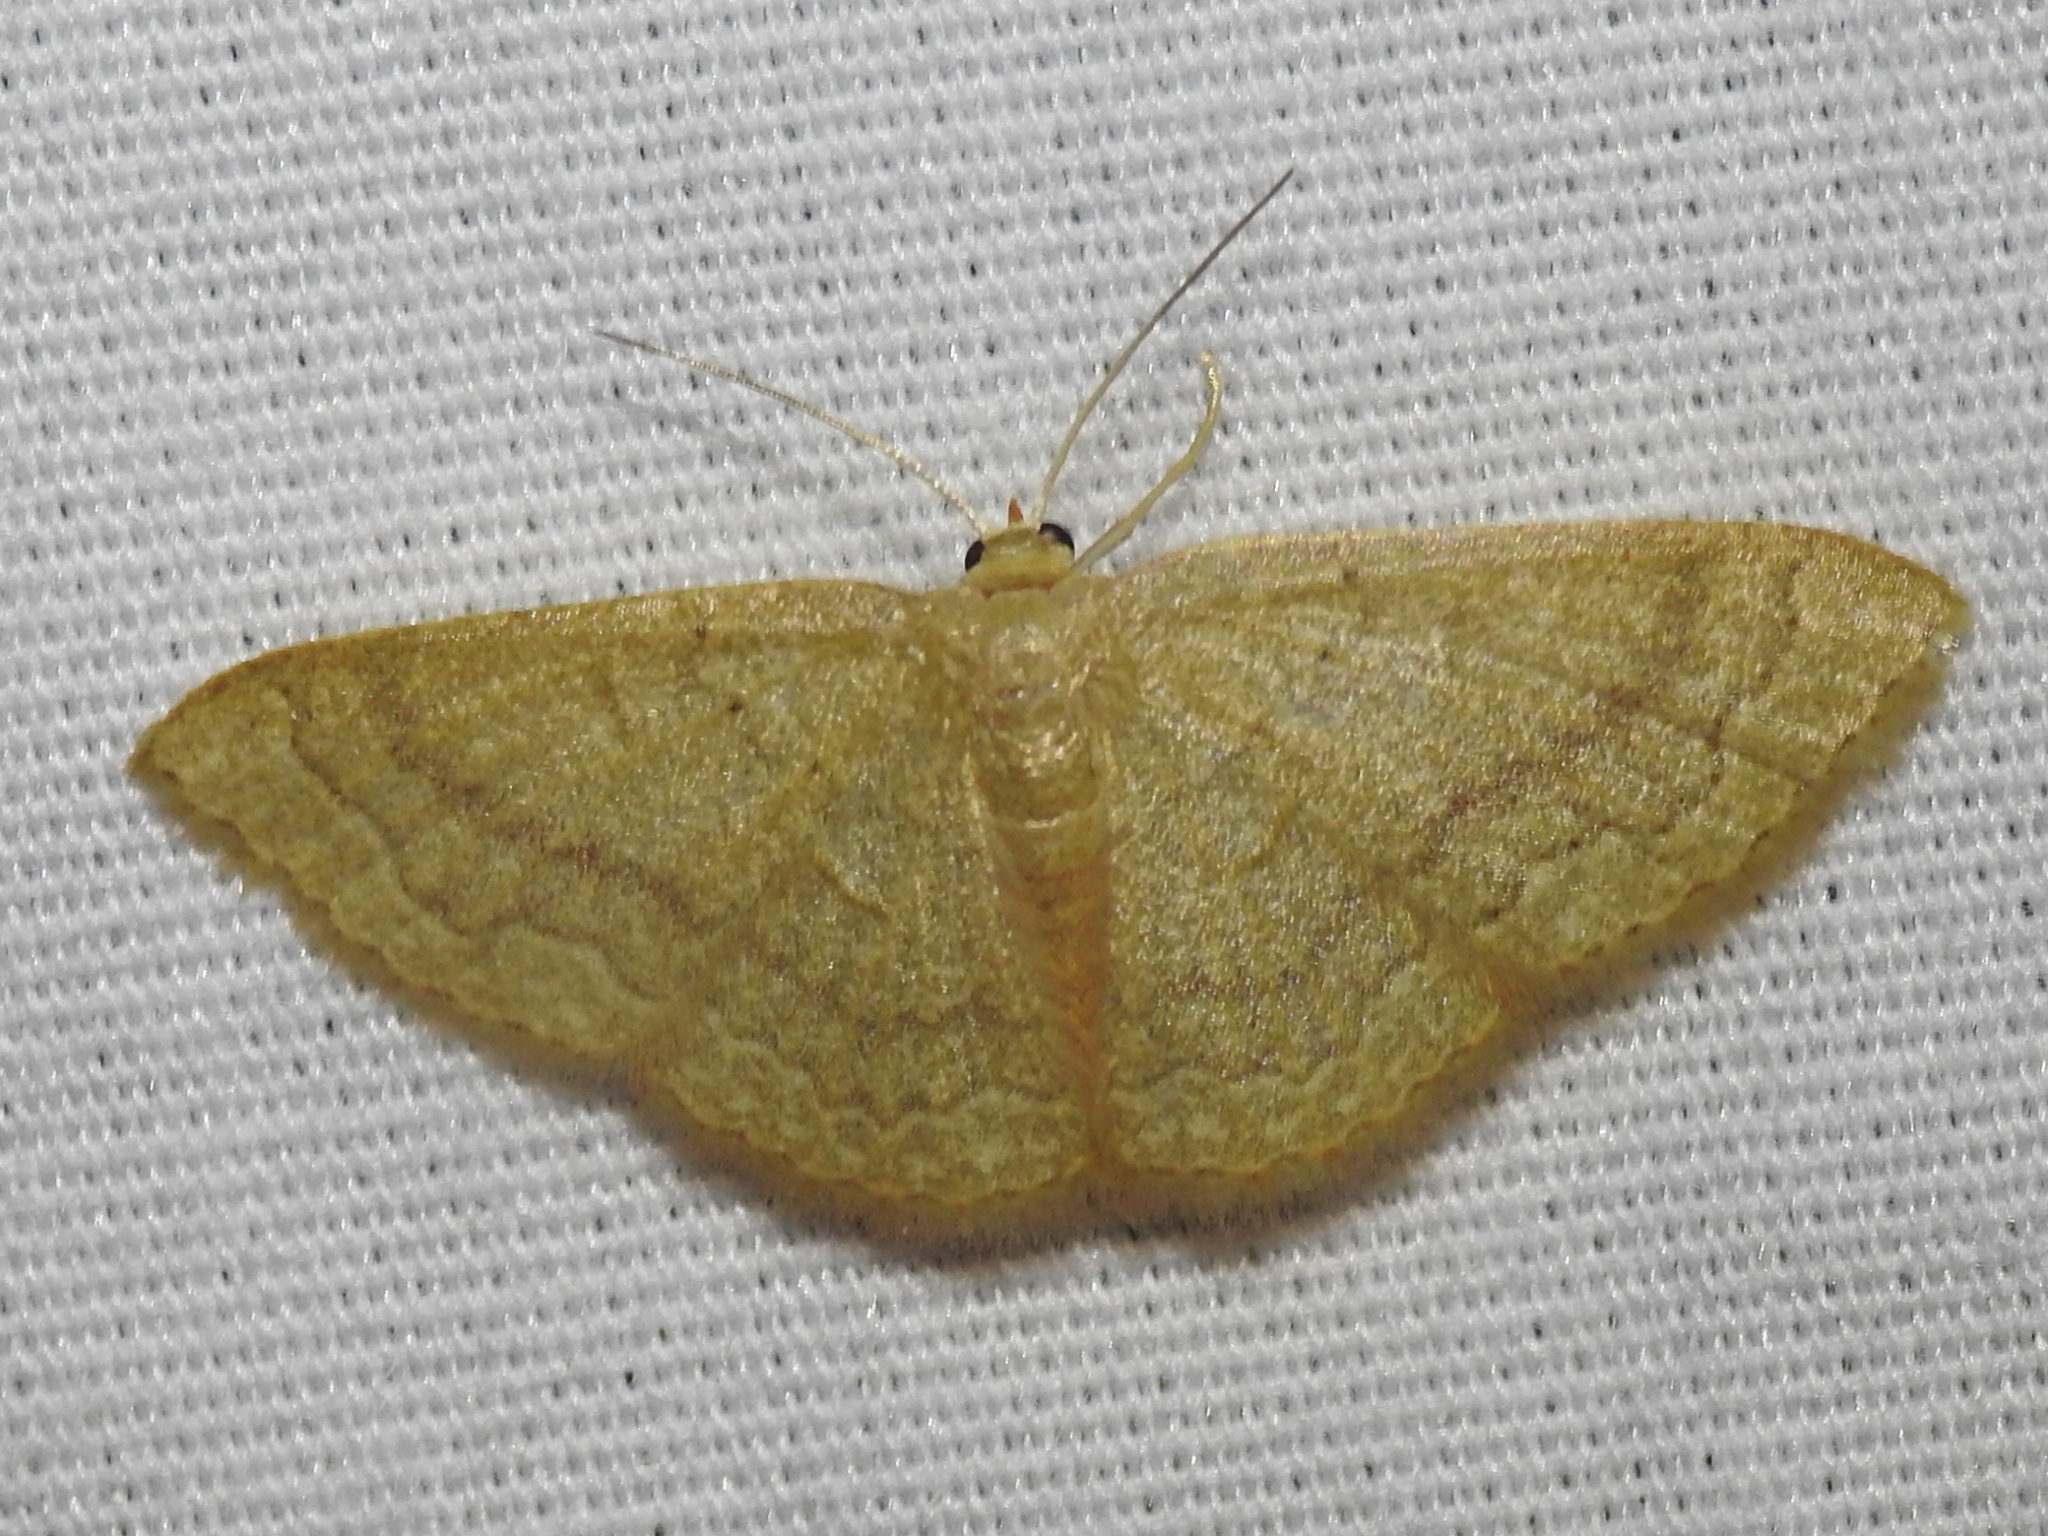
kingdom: Animalia
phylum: Arthropoda
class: Insecta
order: Lepidoptera
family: Geometridae
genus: Pleuroprucha
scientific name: Pleuroprucha insulsaria
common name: Common tan wave
